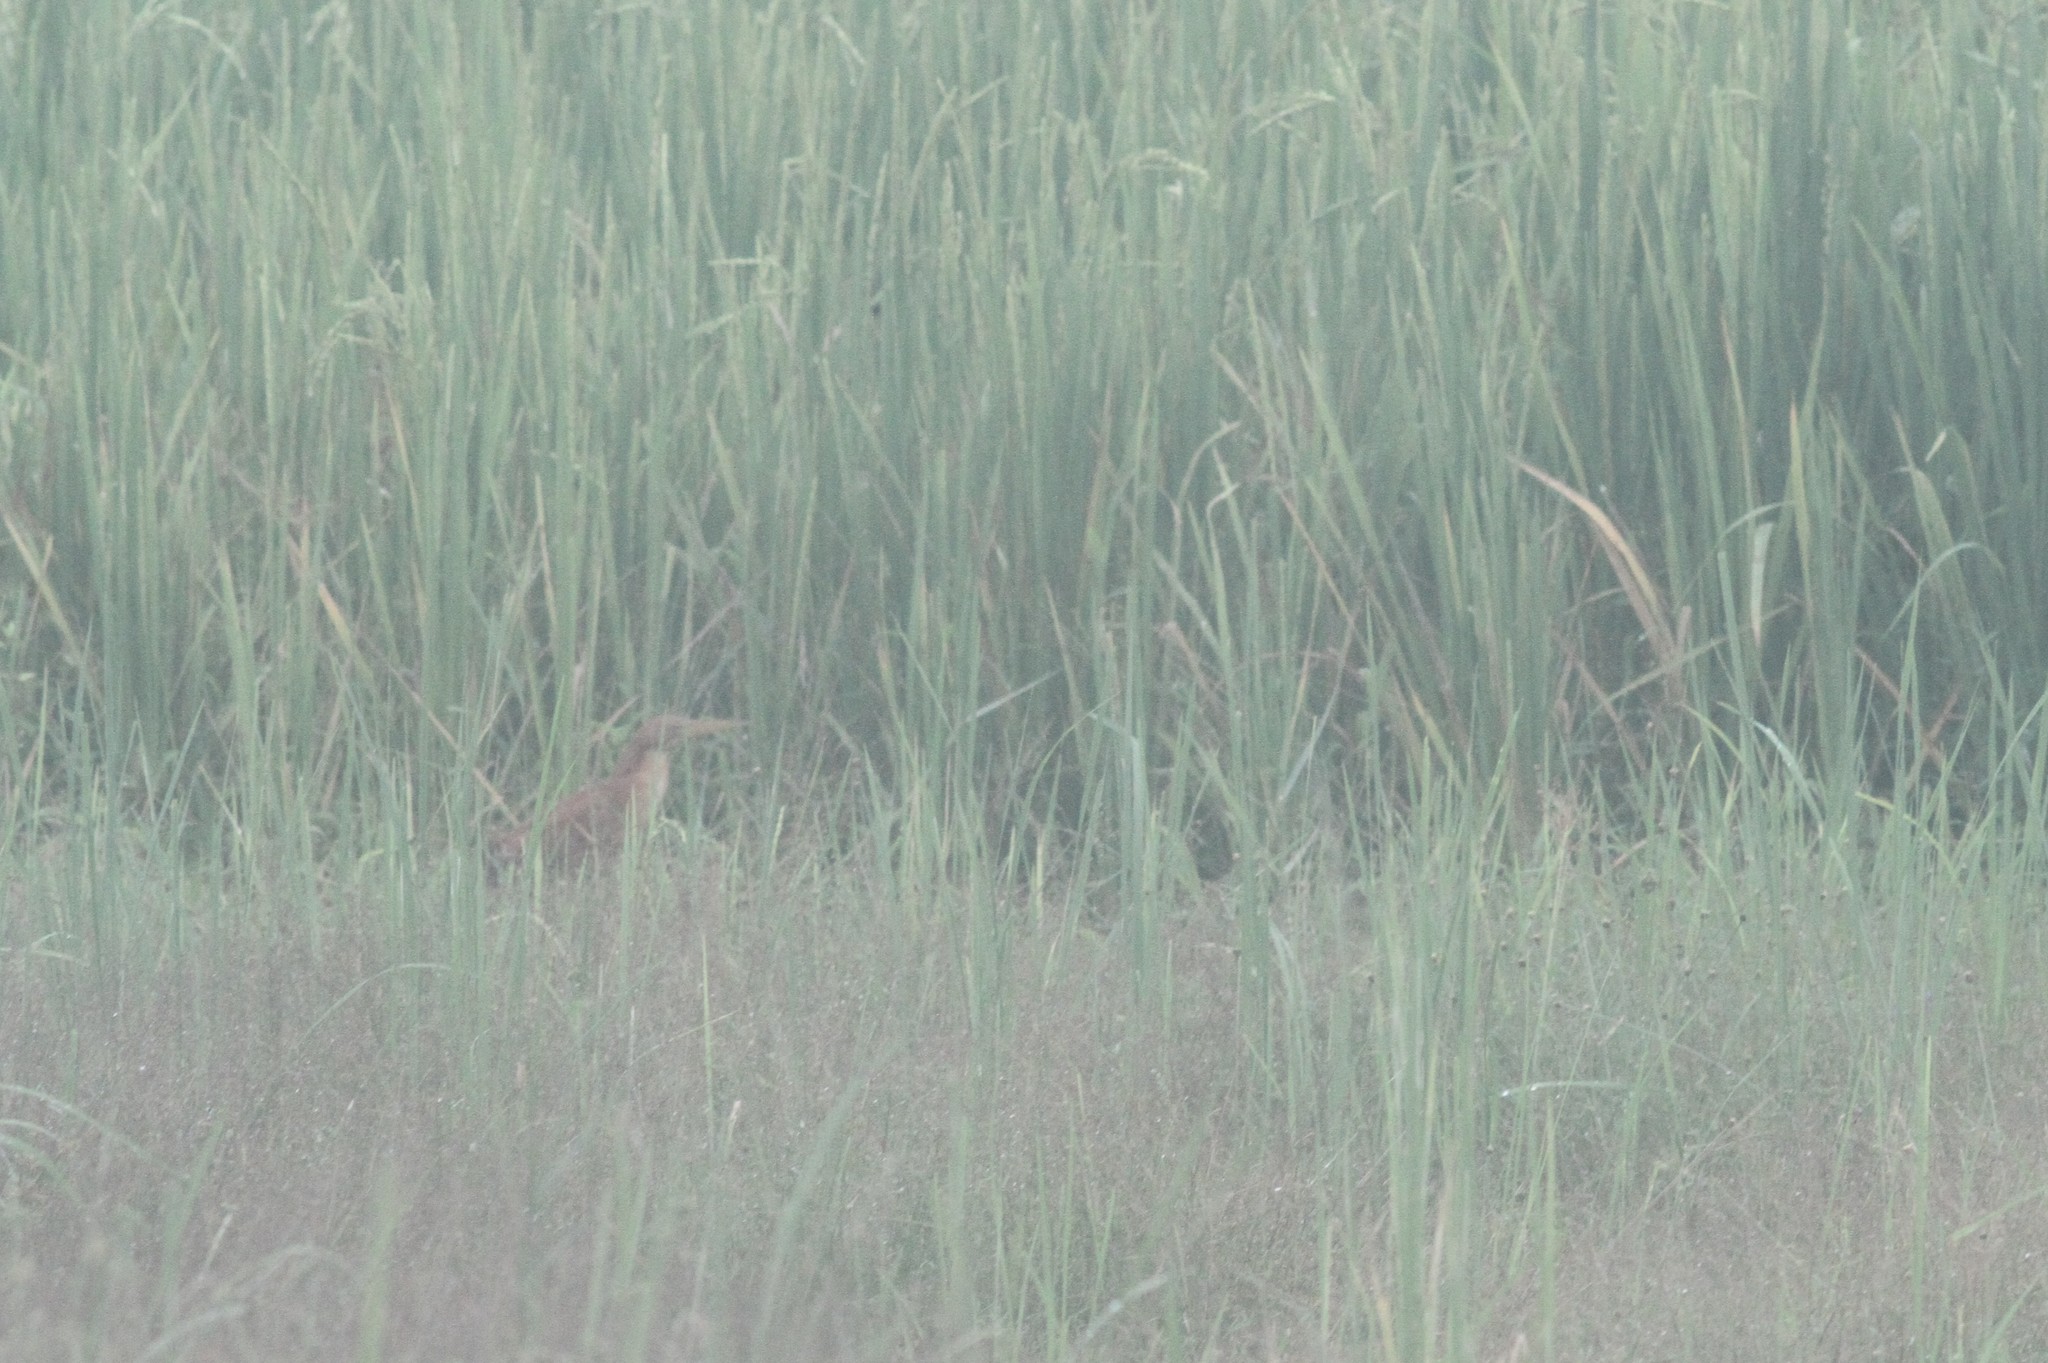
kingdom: Animalia
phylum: Chordata
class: Aves
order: Pelecaniformes
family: Ardeidae
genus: Ixobrychus
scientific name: Ixobrychus cinnamomeus
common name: Cinnamon bittern
